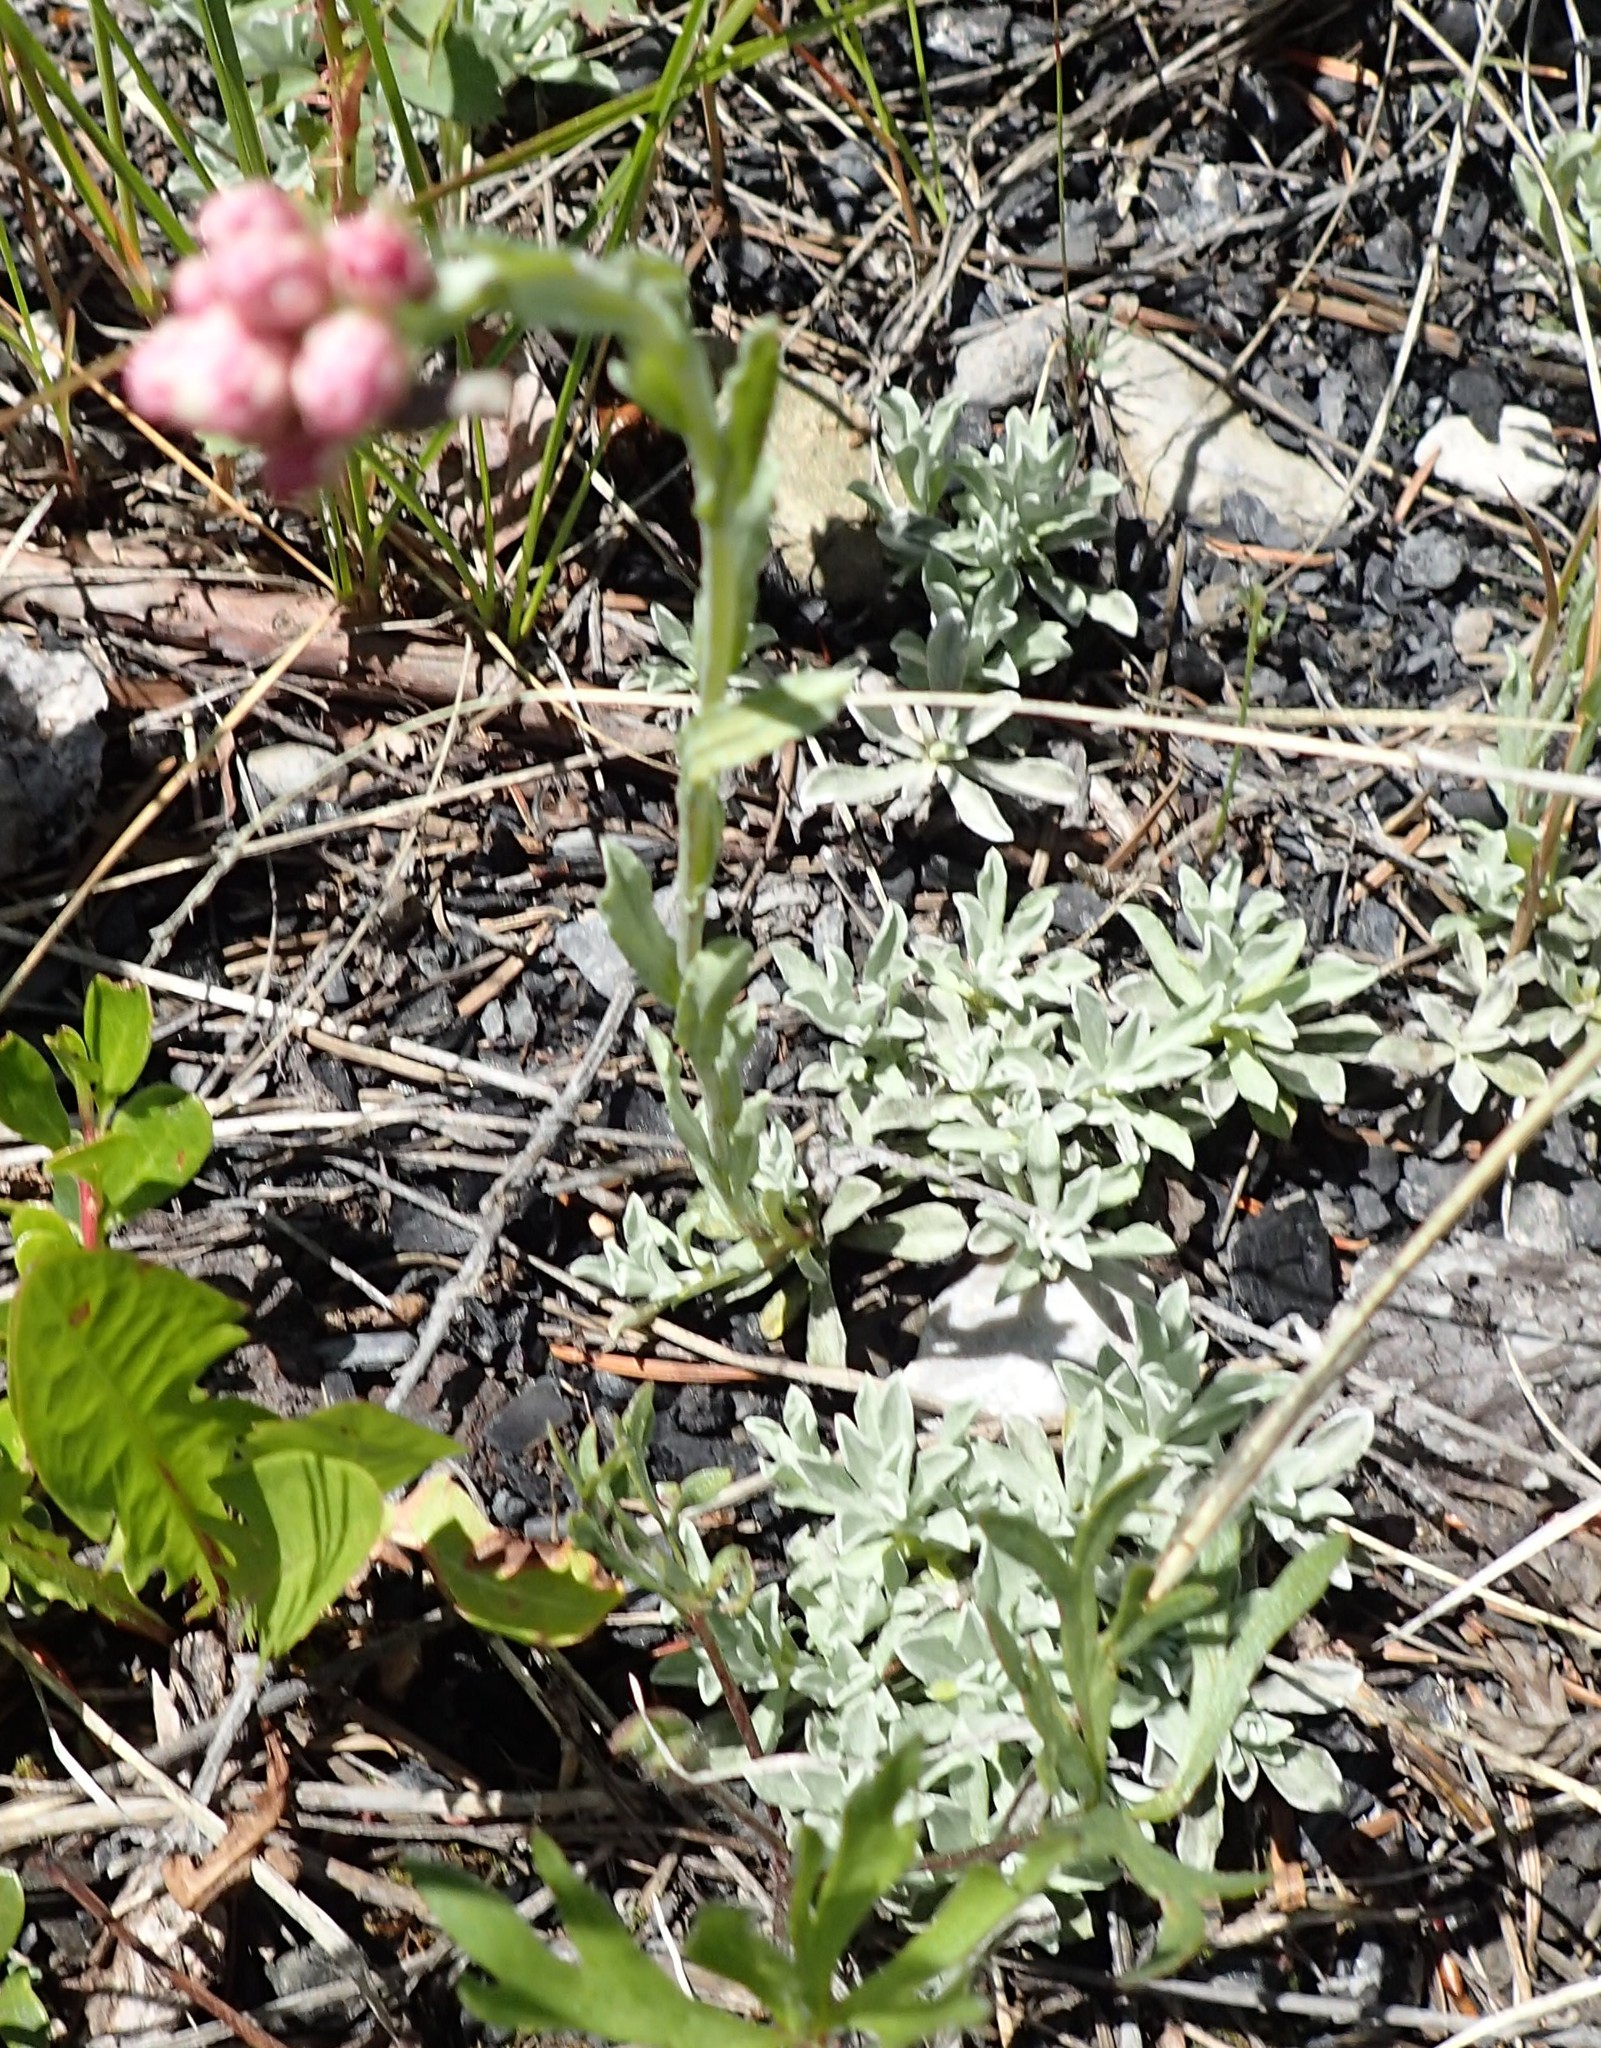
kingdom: Plantae
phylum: Tracheophyta
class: Magnoliopsida
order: Asterales
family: Asteraceae
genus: Antennaria
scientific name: Antennaria rosea
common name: Rosy pussytoes
